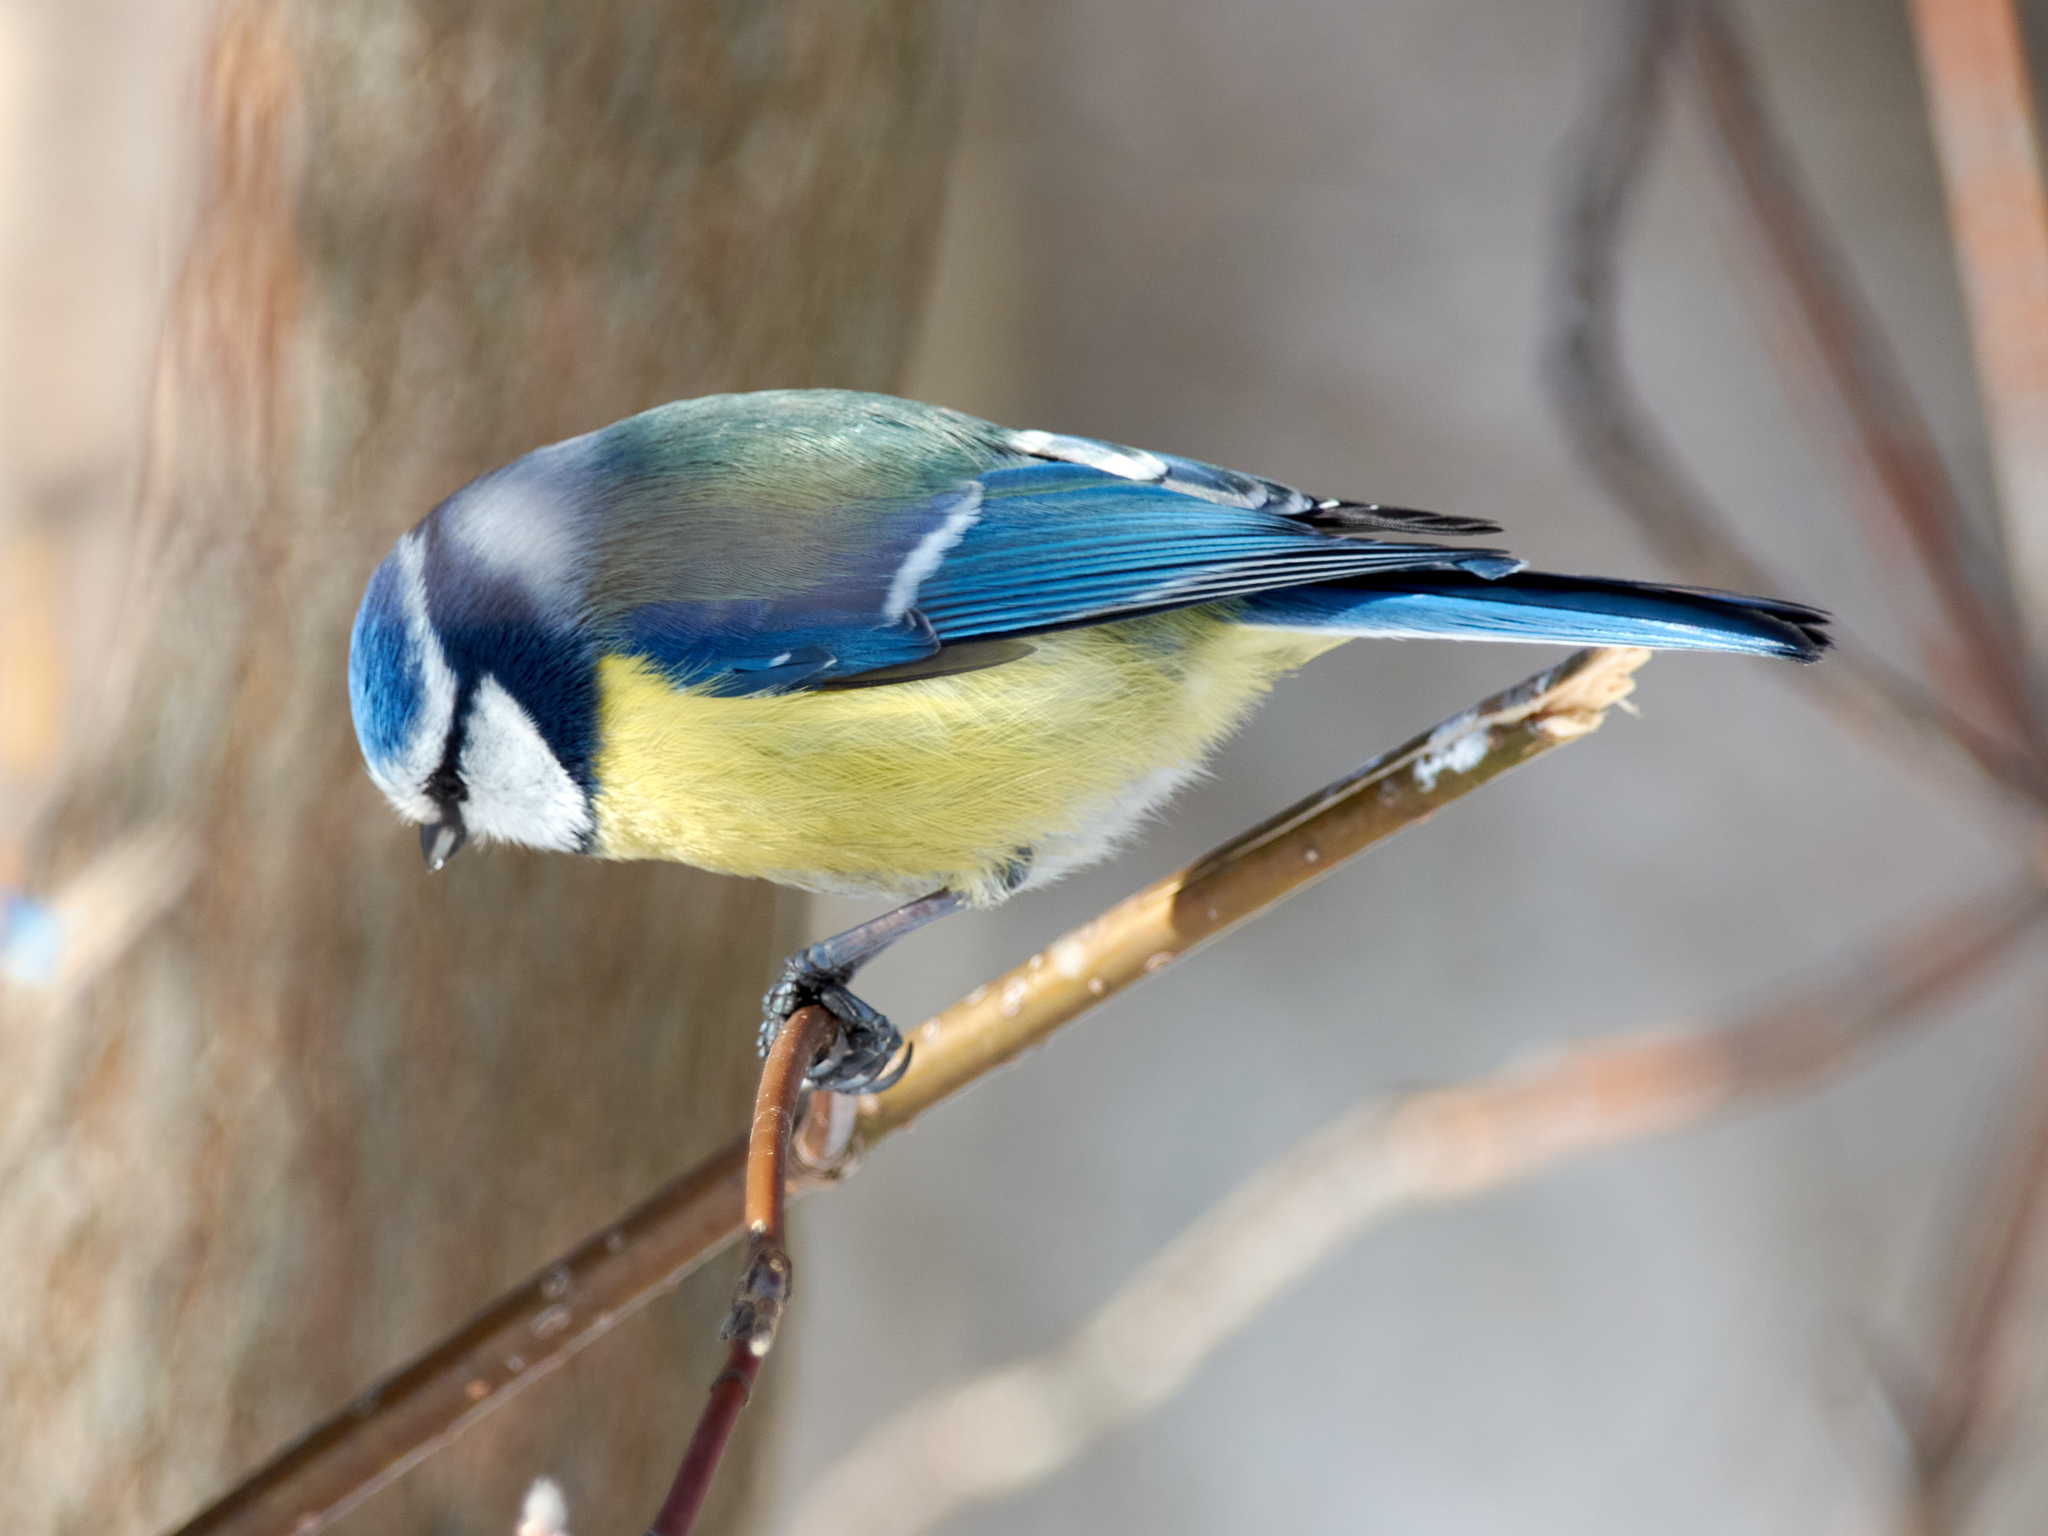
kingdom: Animalia
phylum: Chordata
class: Aves
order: Passeriformes
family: Paridae
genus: Cyanistes
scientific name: Cyanistes caeruleus
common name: Eurasian blue tit
